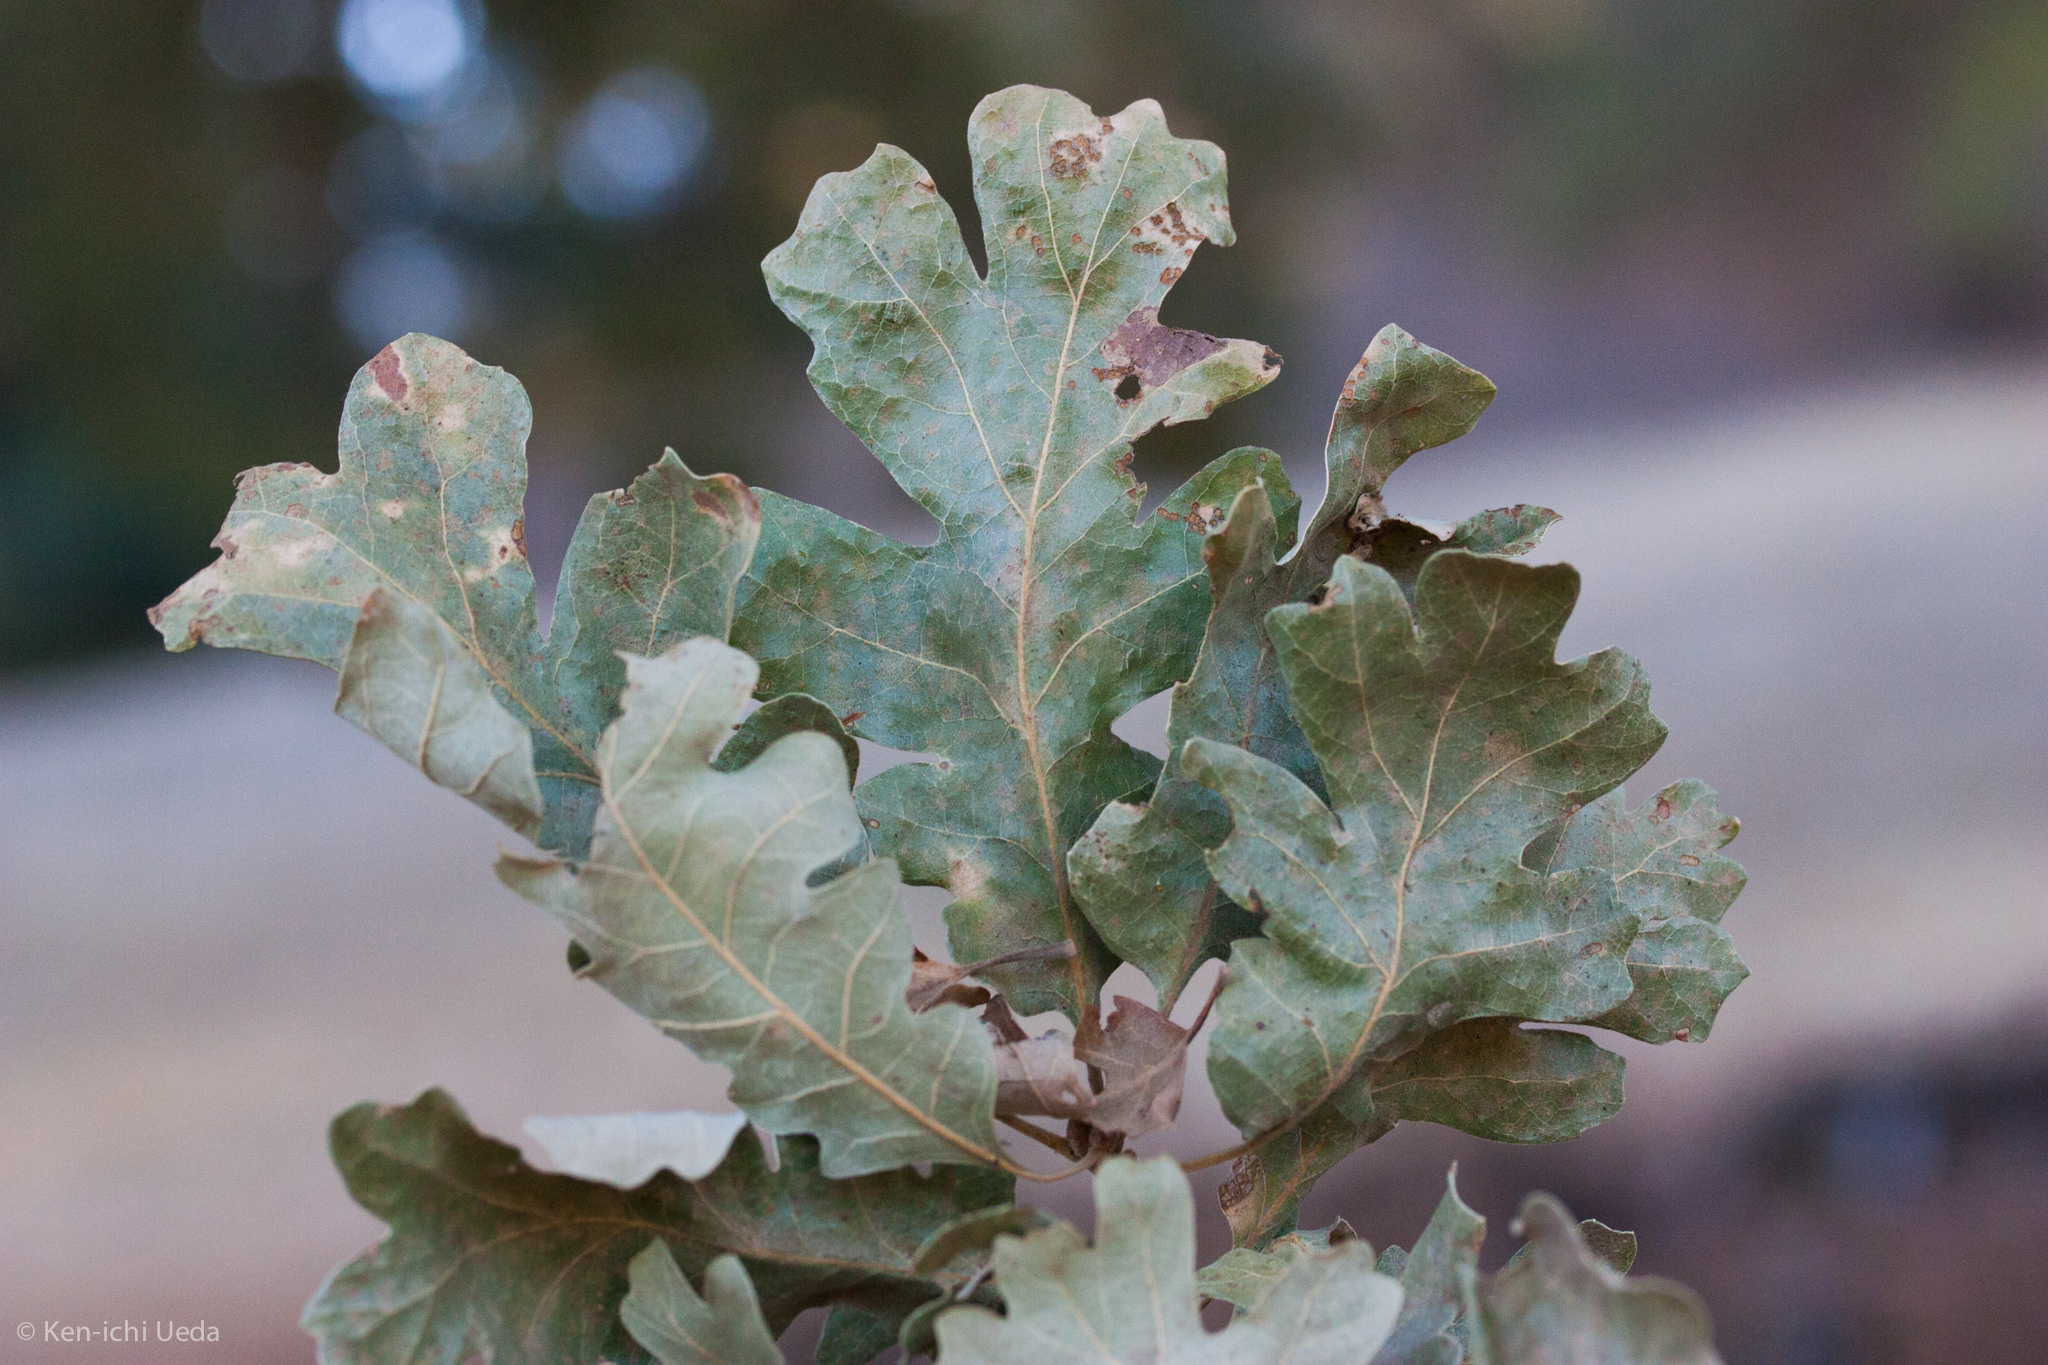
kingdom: Plantae
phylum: Tracheophyta
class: Magnoliopsida
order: Fagales
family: Fagaceae
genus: Quercus
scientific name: Quercus lobata
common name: Valley oak
